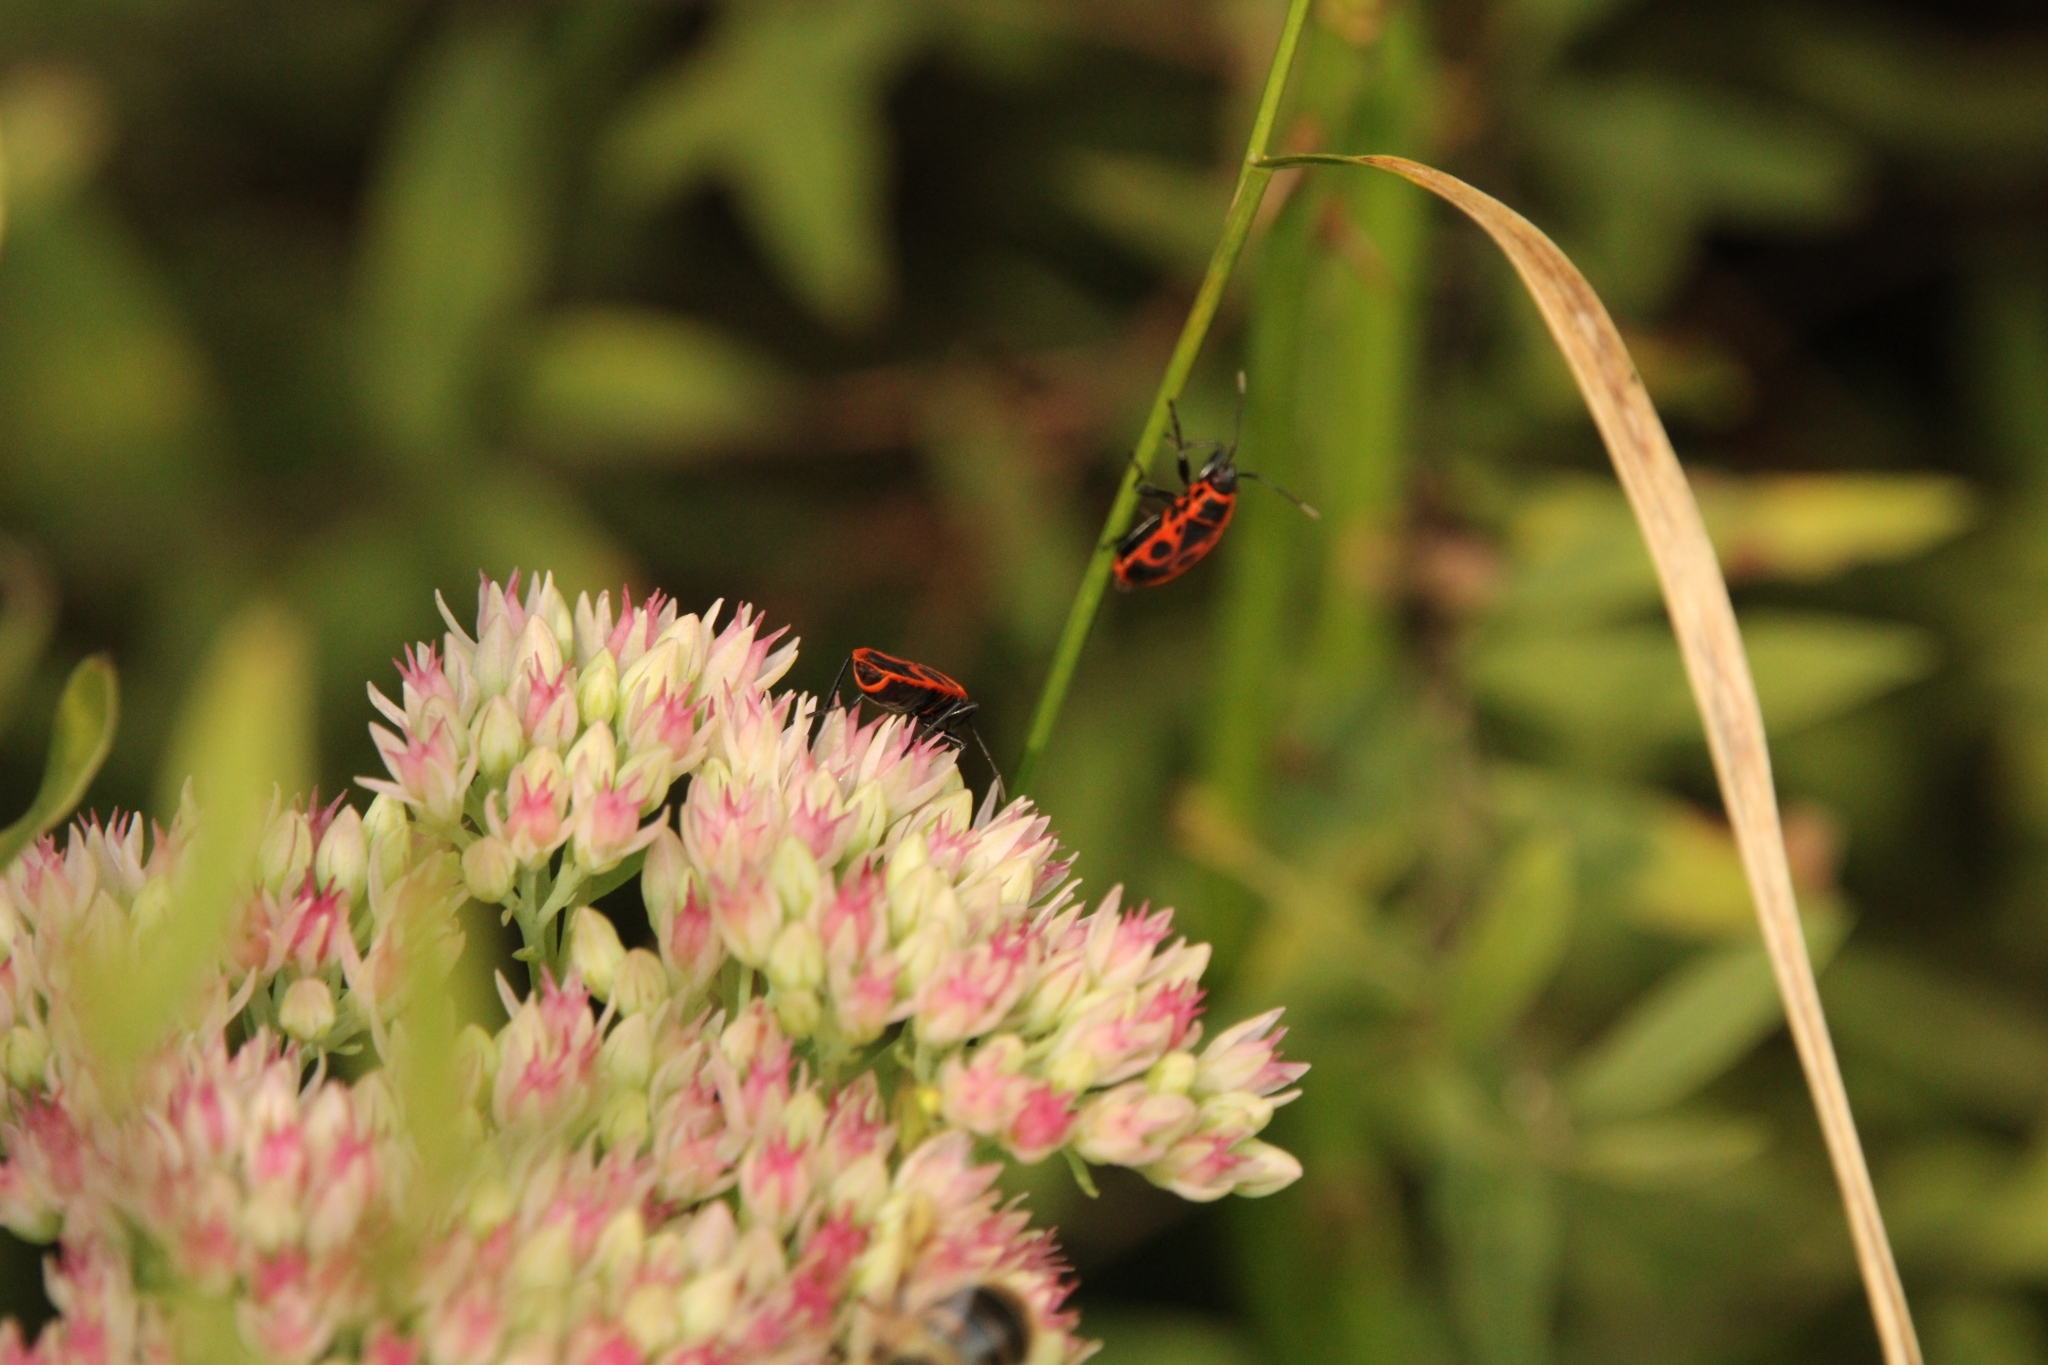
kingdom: Animalia
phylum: Arthropoda
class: Insecta
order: Hemiptera
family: Pyrrhocoridae
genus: Pyrrhocoris
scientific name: Pyrrhocoris apterus
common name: Firebug
